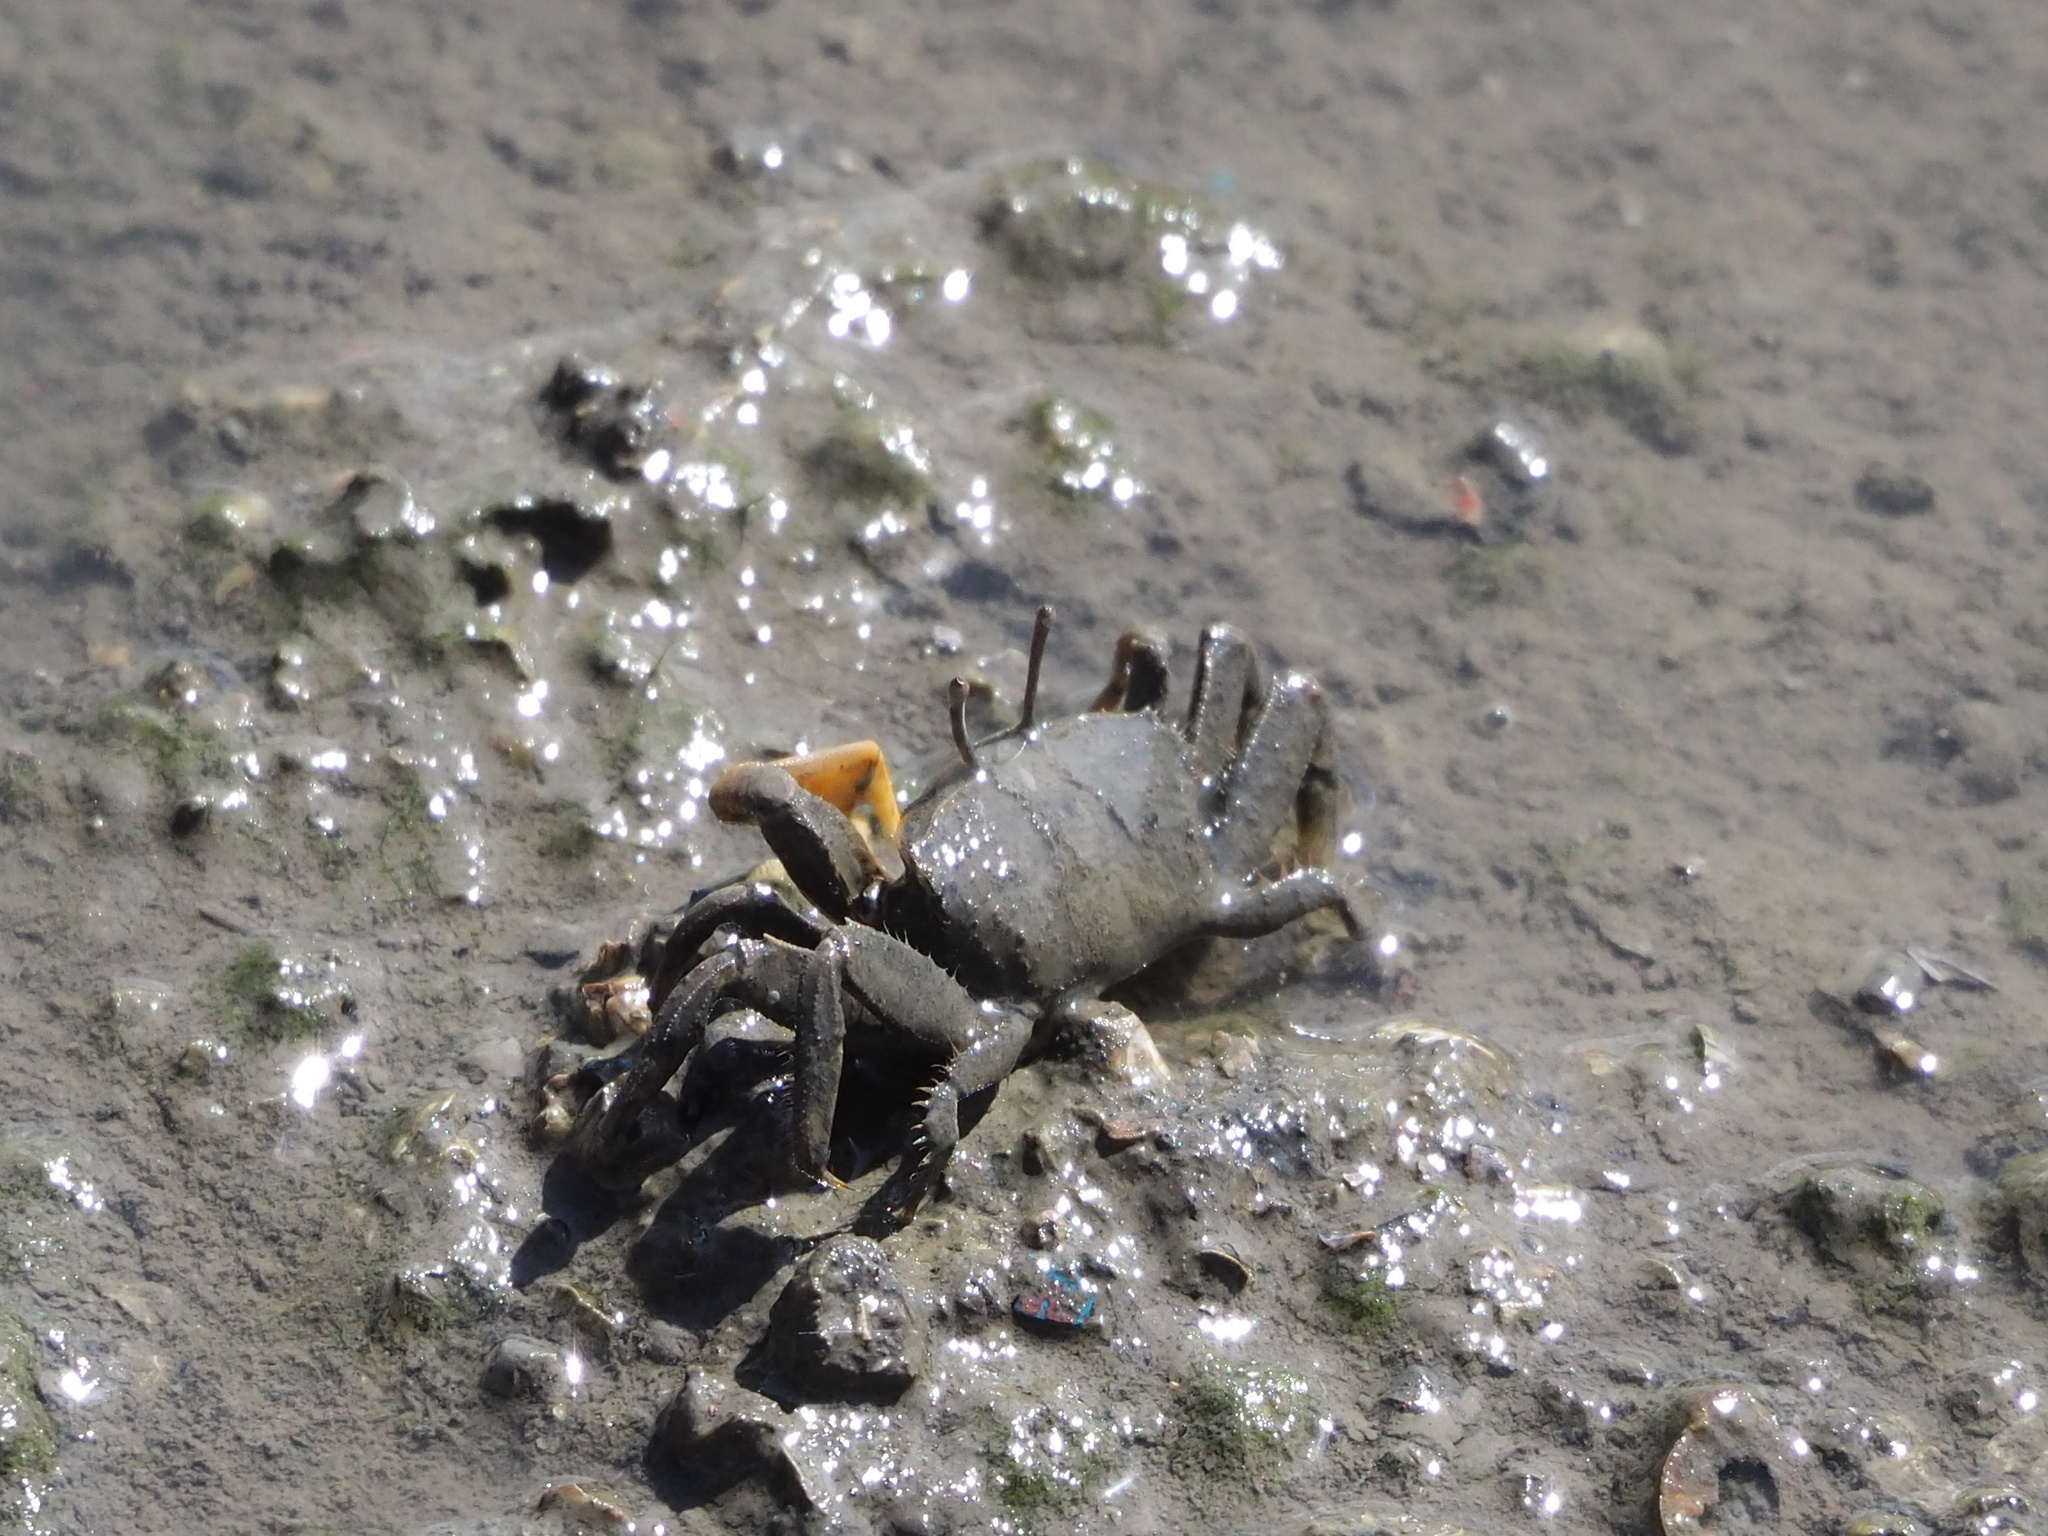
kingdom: Animalia
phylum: Arthropoda
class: Malacostraca
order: Decapoda
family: Macrophthalmidae
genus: Macrophthalmus
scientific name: Macrophthalmus banzai
